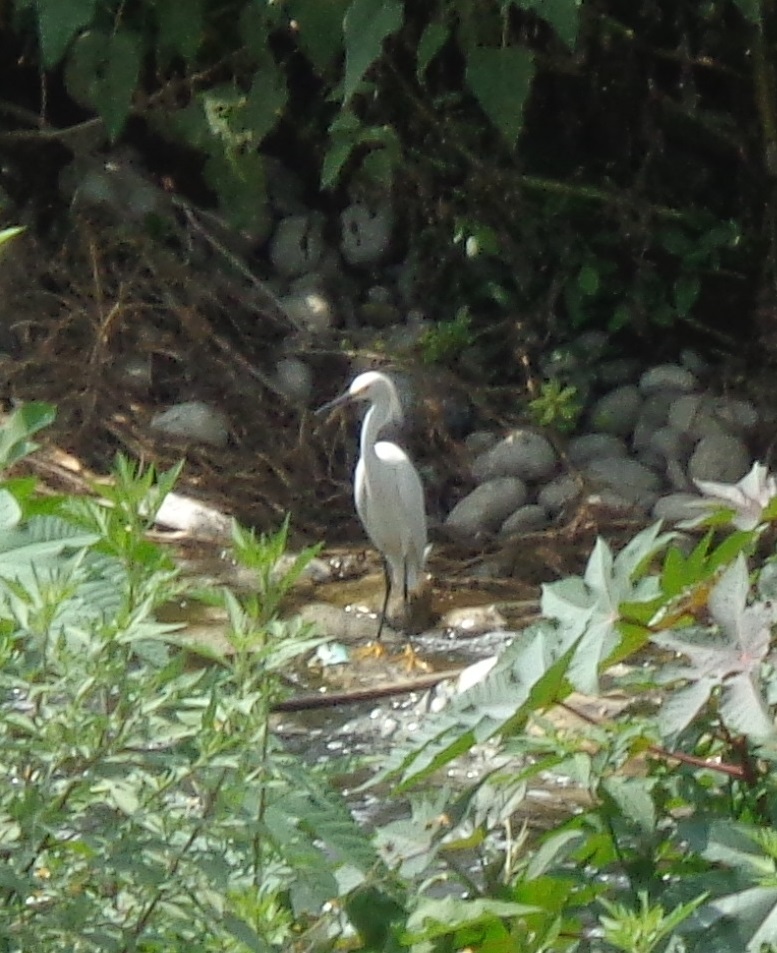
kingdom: Animalia
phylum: Chordata
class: Aves
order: Pelecaniformes
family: Ardeidae
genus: Egretta
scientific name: Egretta thula
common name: Snowy egret
